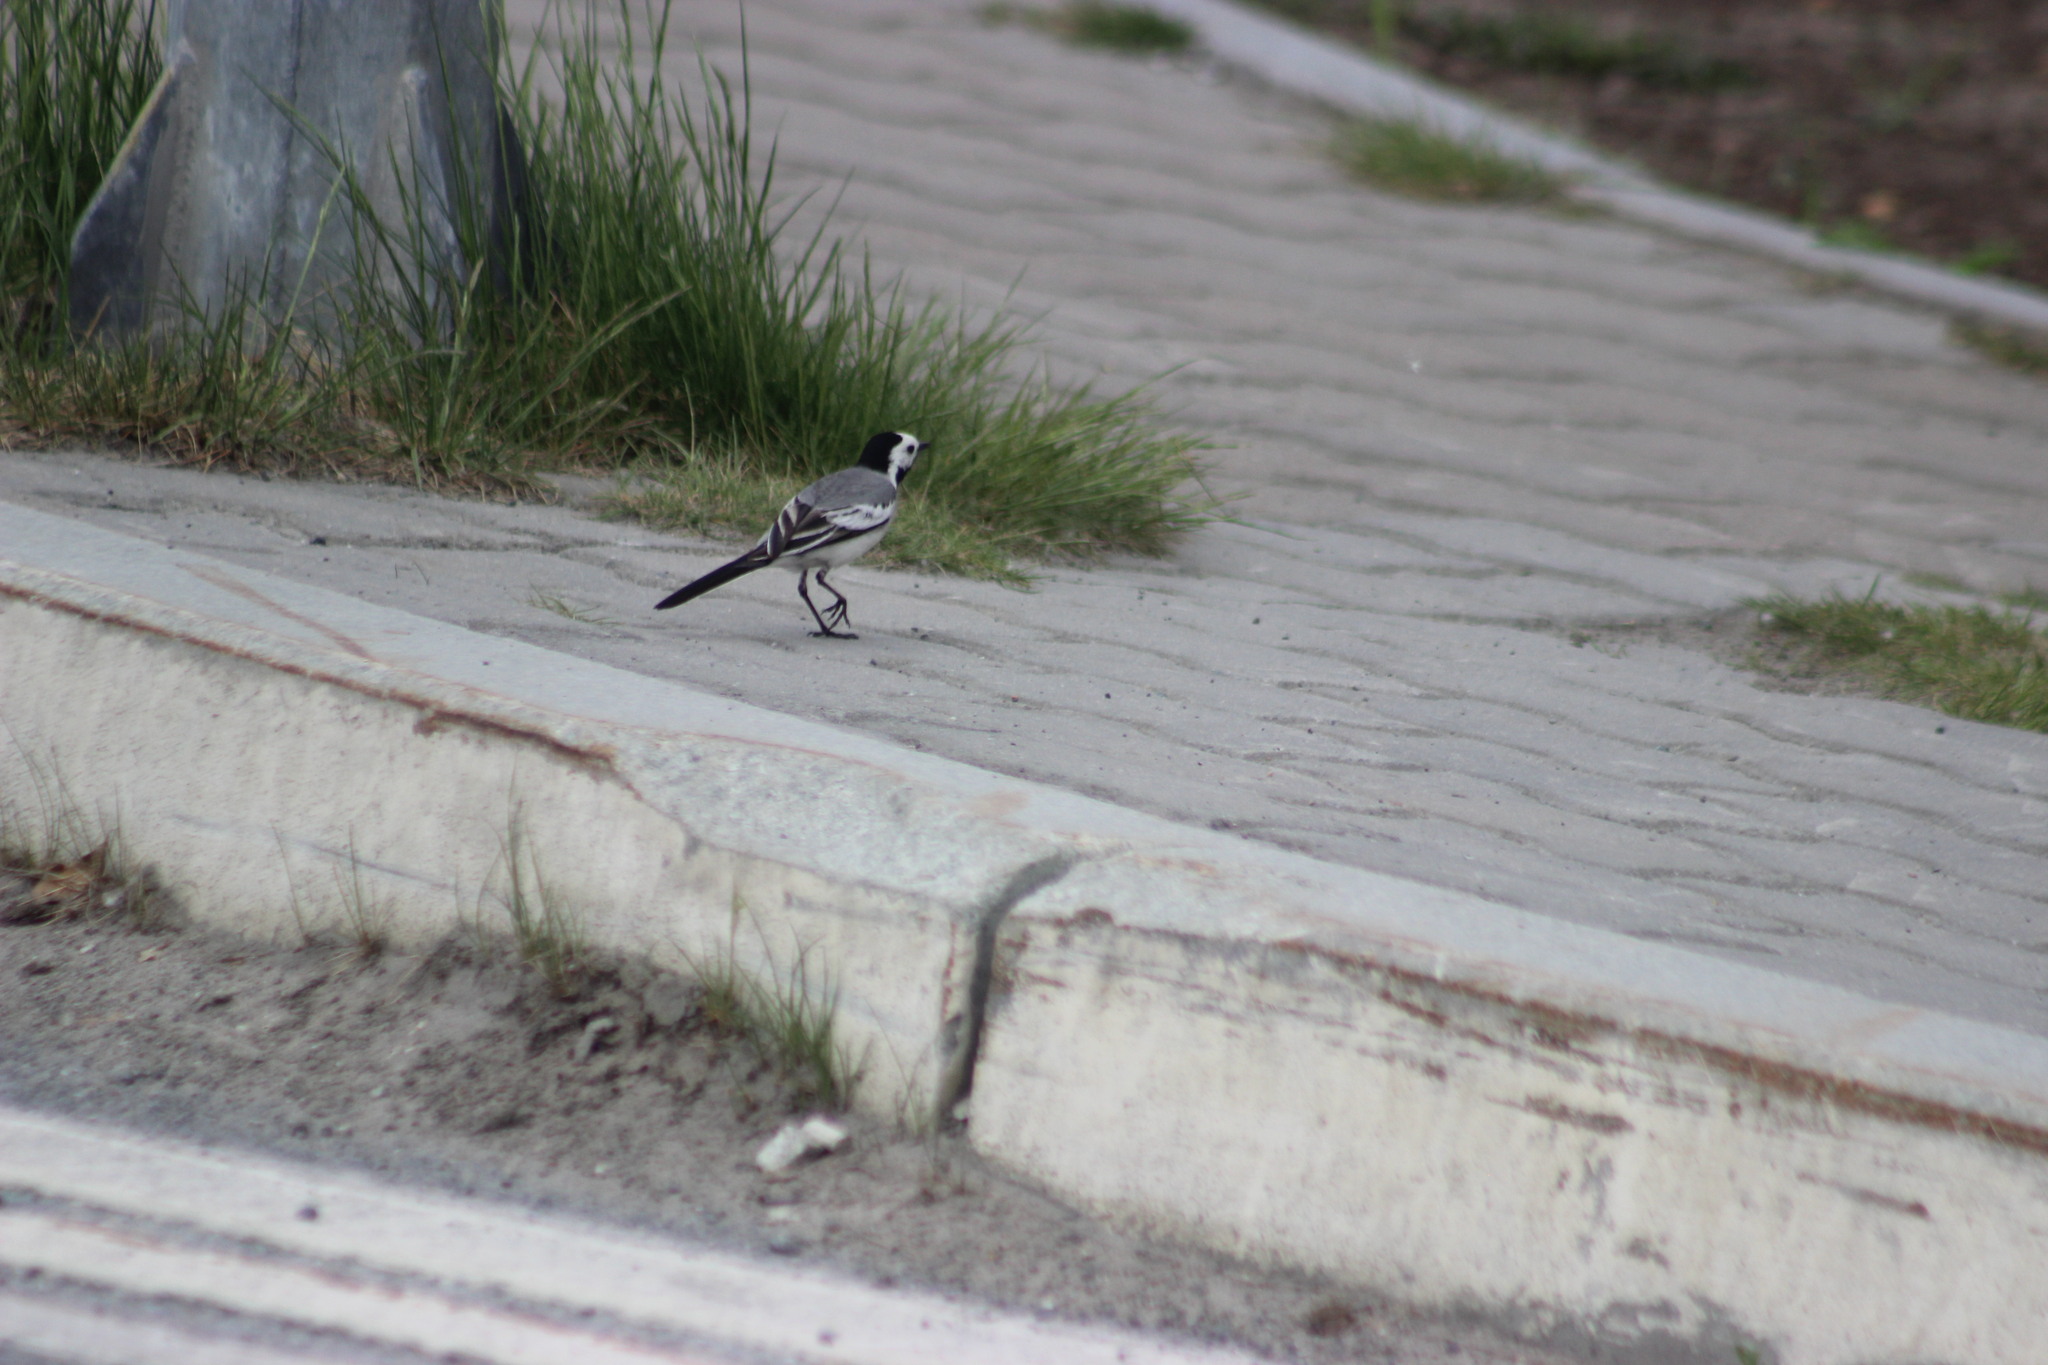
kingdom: Animalia
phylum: Chordata
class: Aves
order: Passeriformes
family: Motacillidae
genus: Motacilla
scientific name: Motacilla alba
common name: White wagtail
